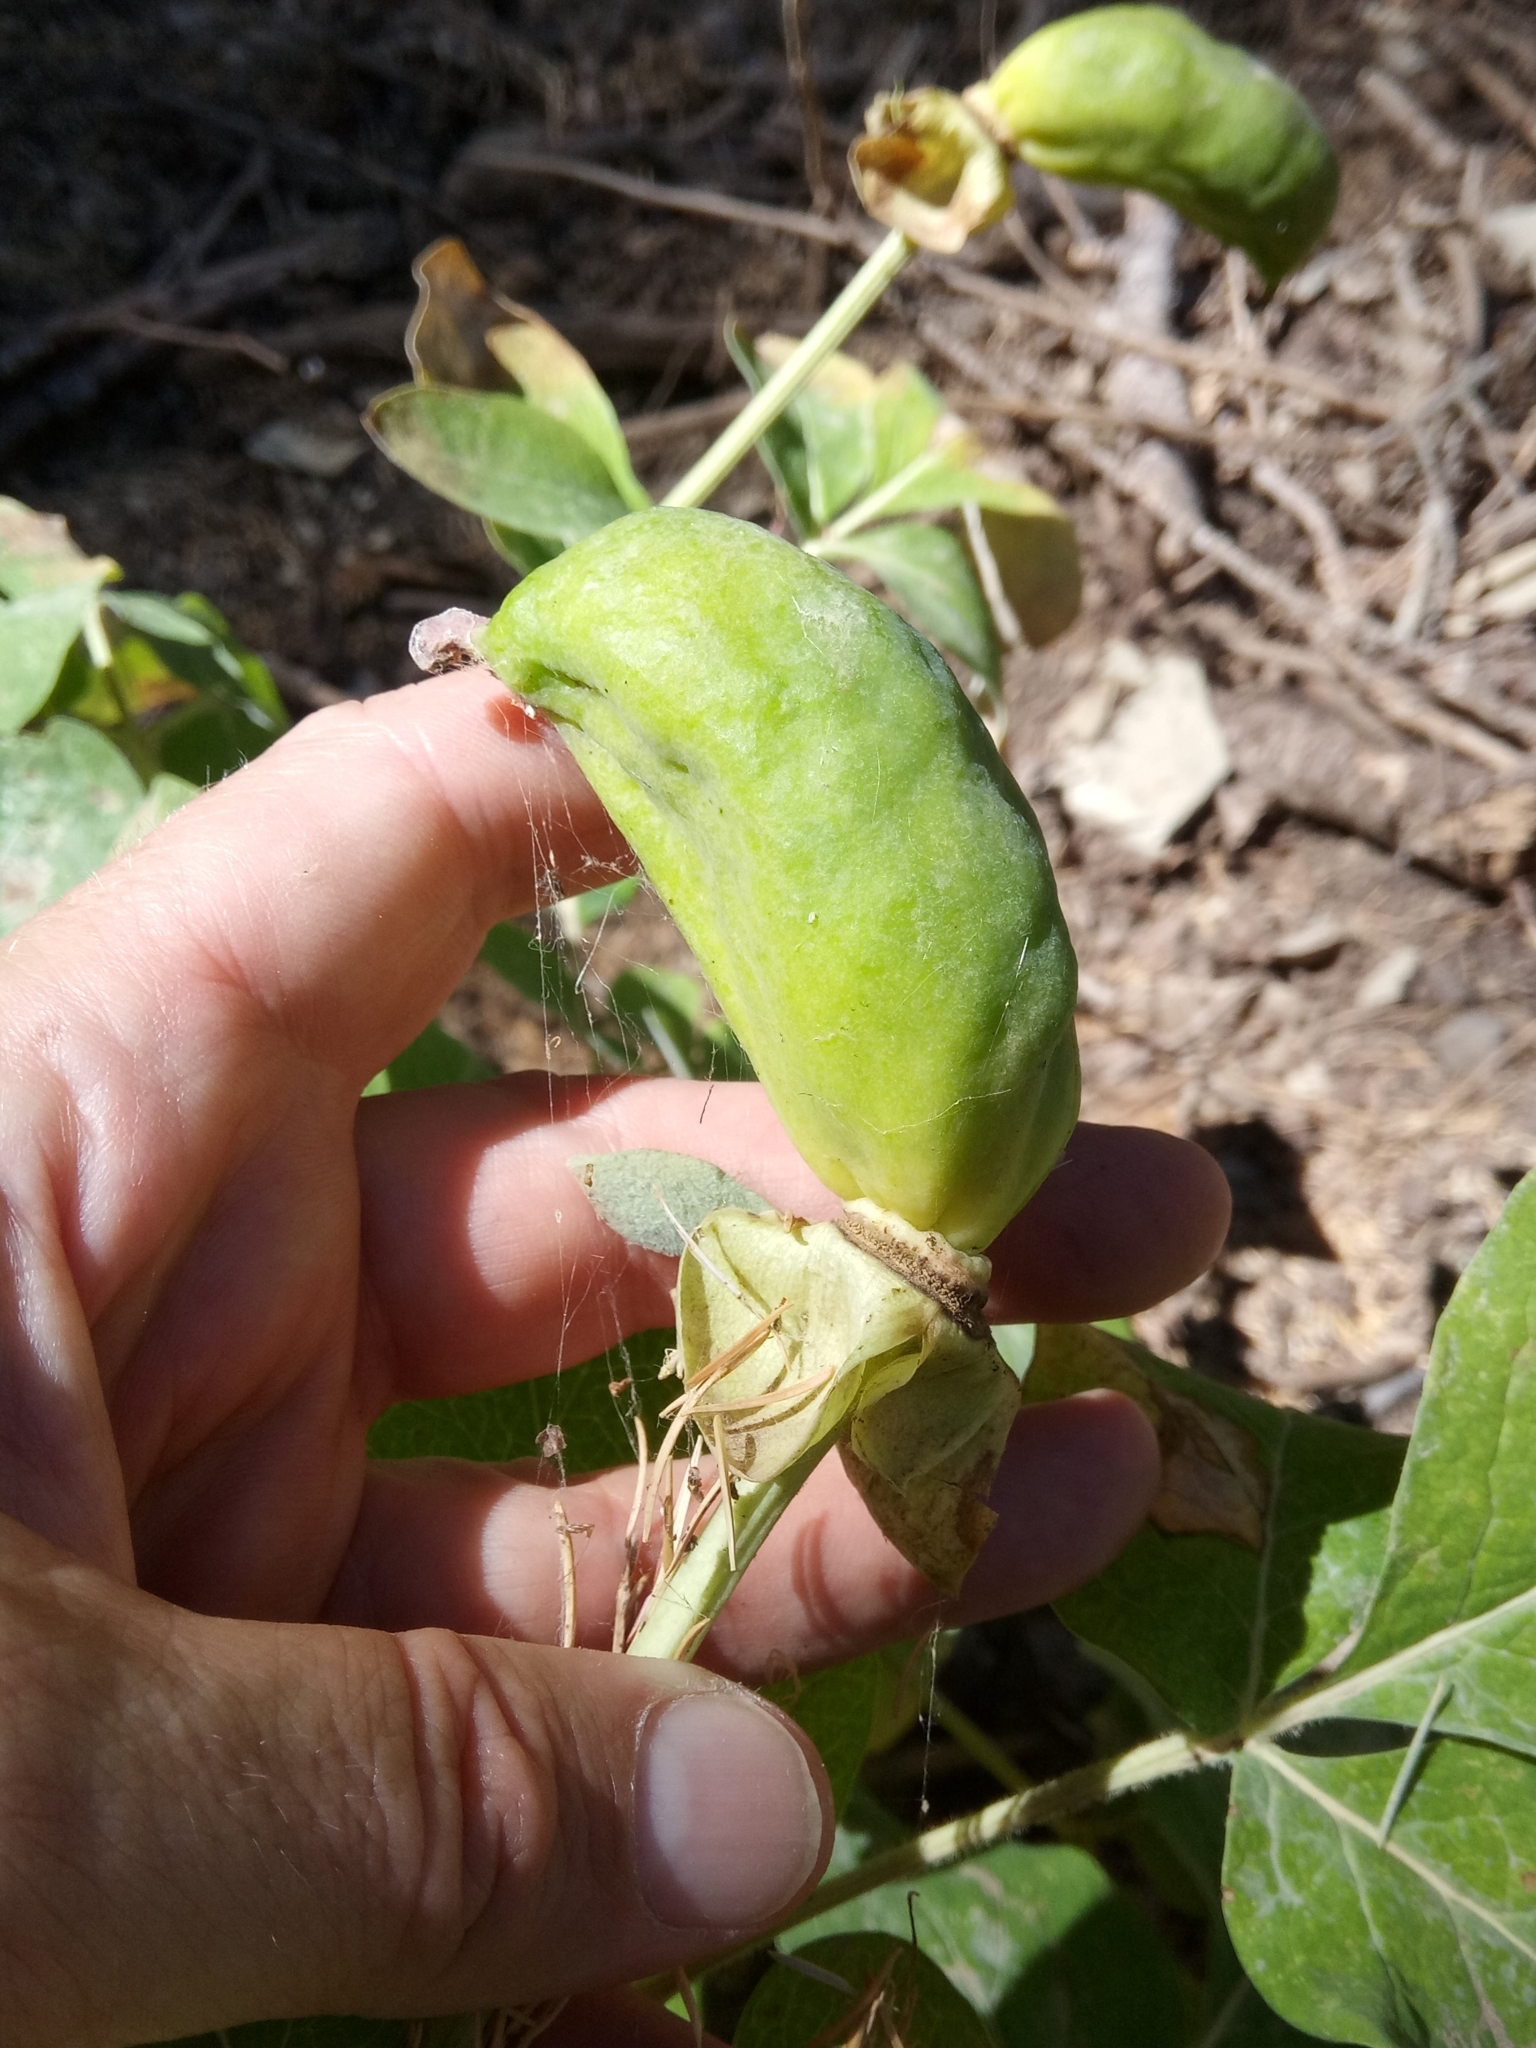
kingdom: Plantae
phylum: Tracheophyta
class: Magnoliopsida
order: Saxifragales
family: Paeoniaceae
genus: Paeonia
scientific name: Paeonia algeriensis
